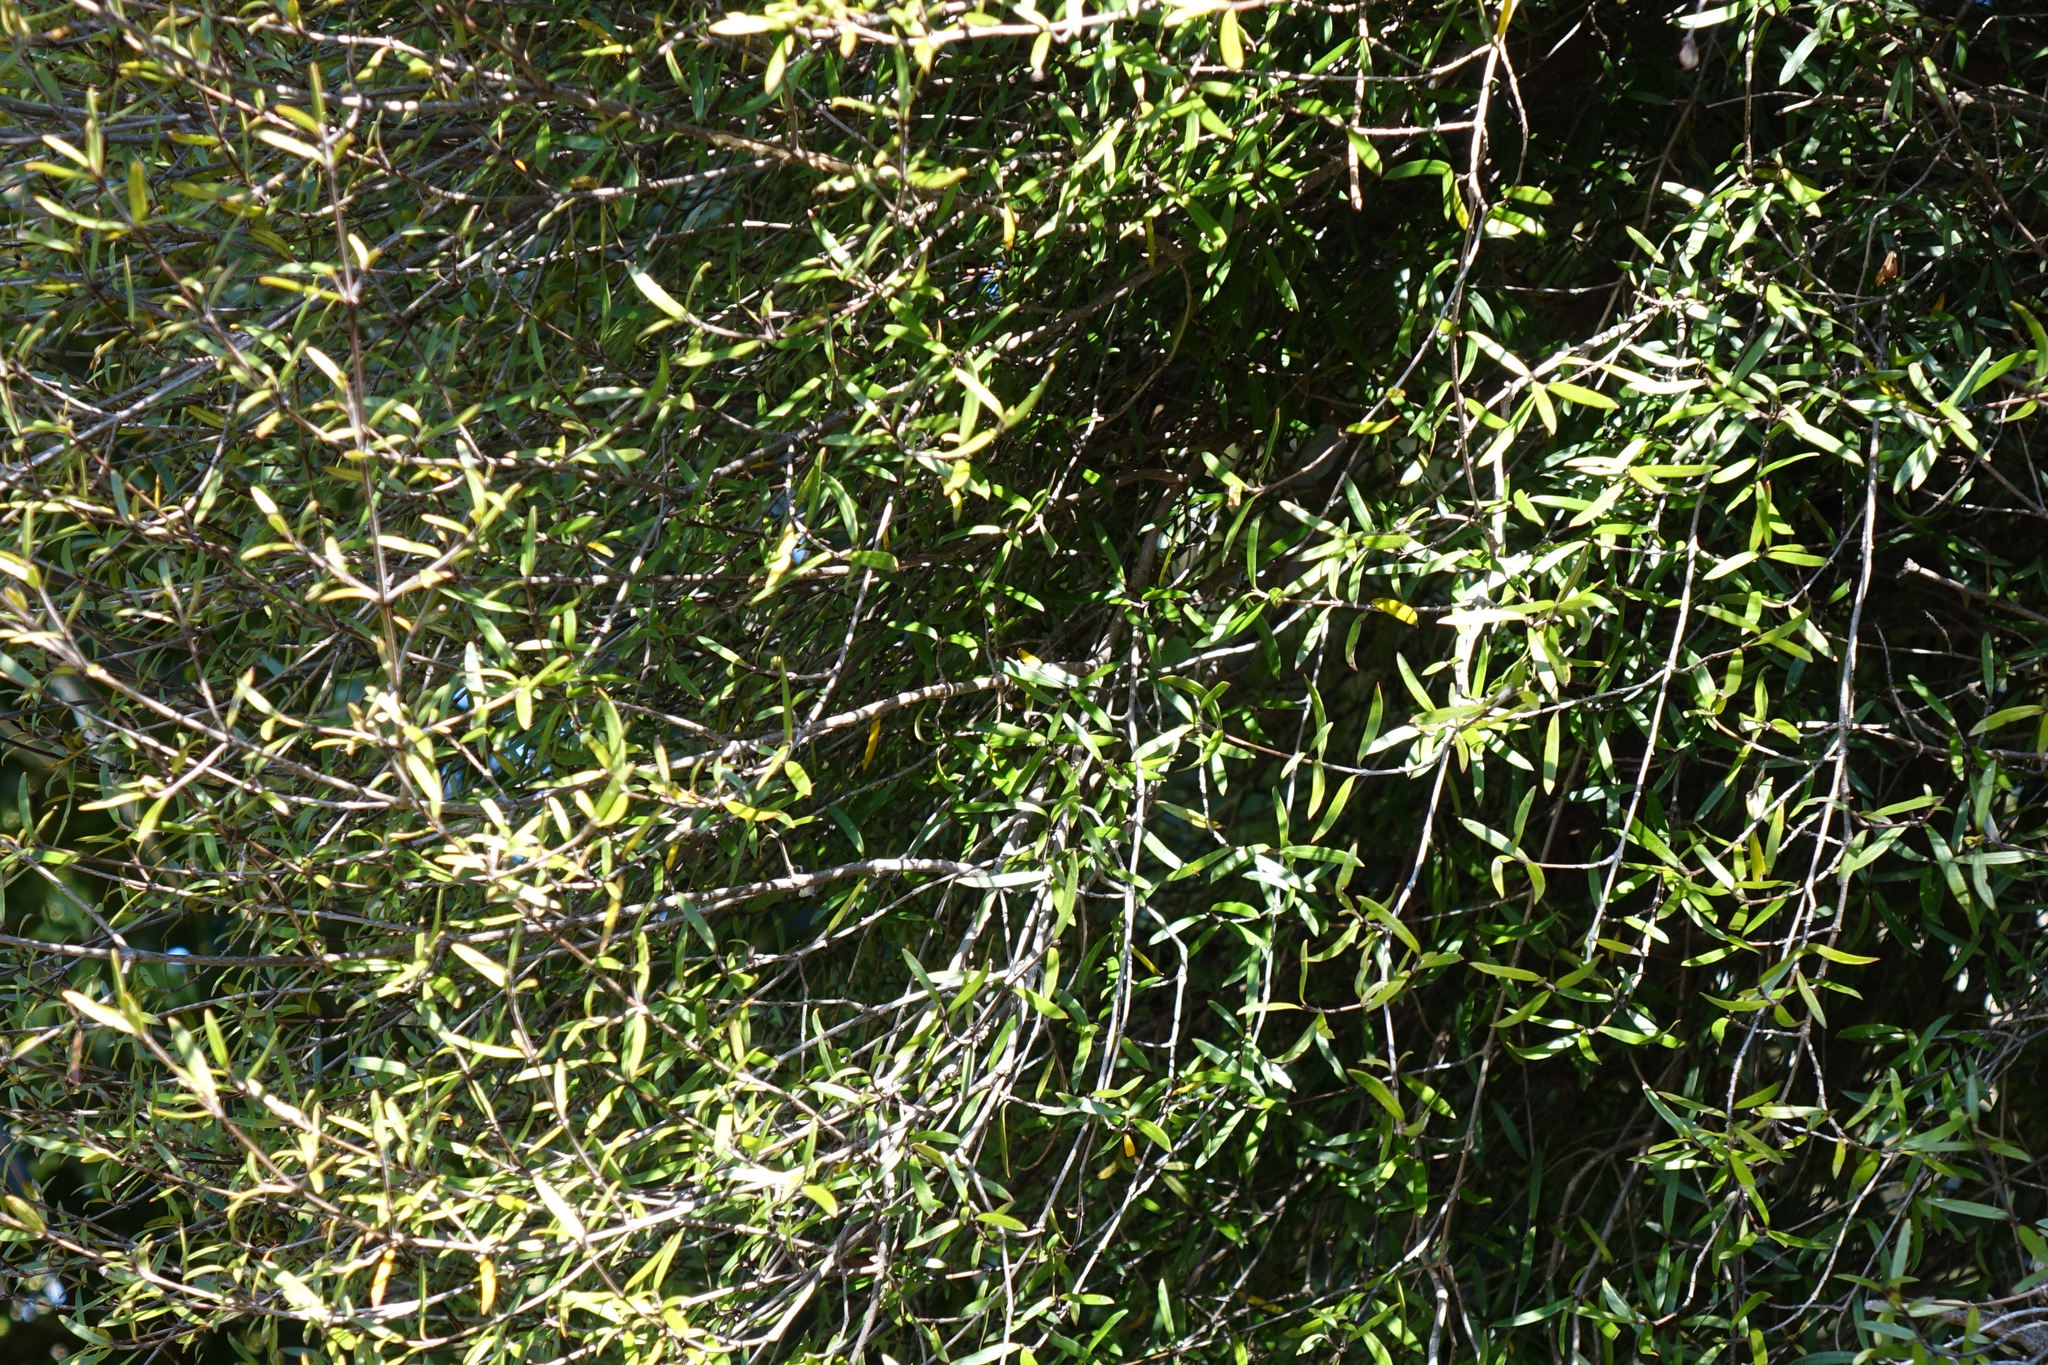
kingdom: Plantae
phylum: Tracheophyta
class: Magnoliopsida
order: Gentianales
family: Rubiaceae
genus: Coprosma
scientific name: Coprosma linariifolia
